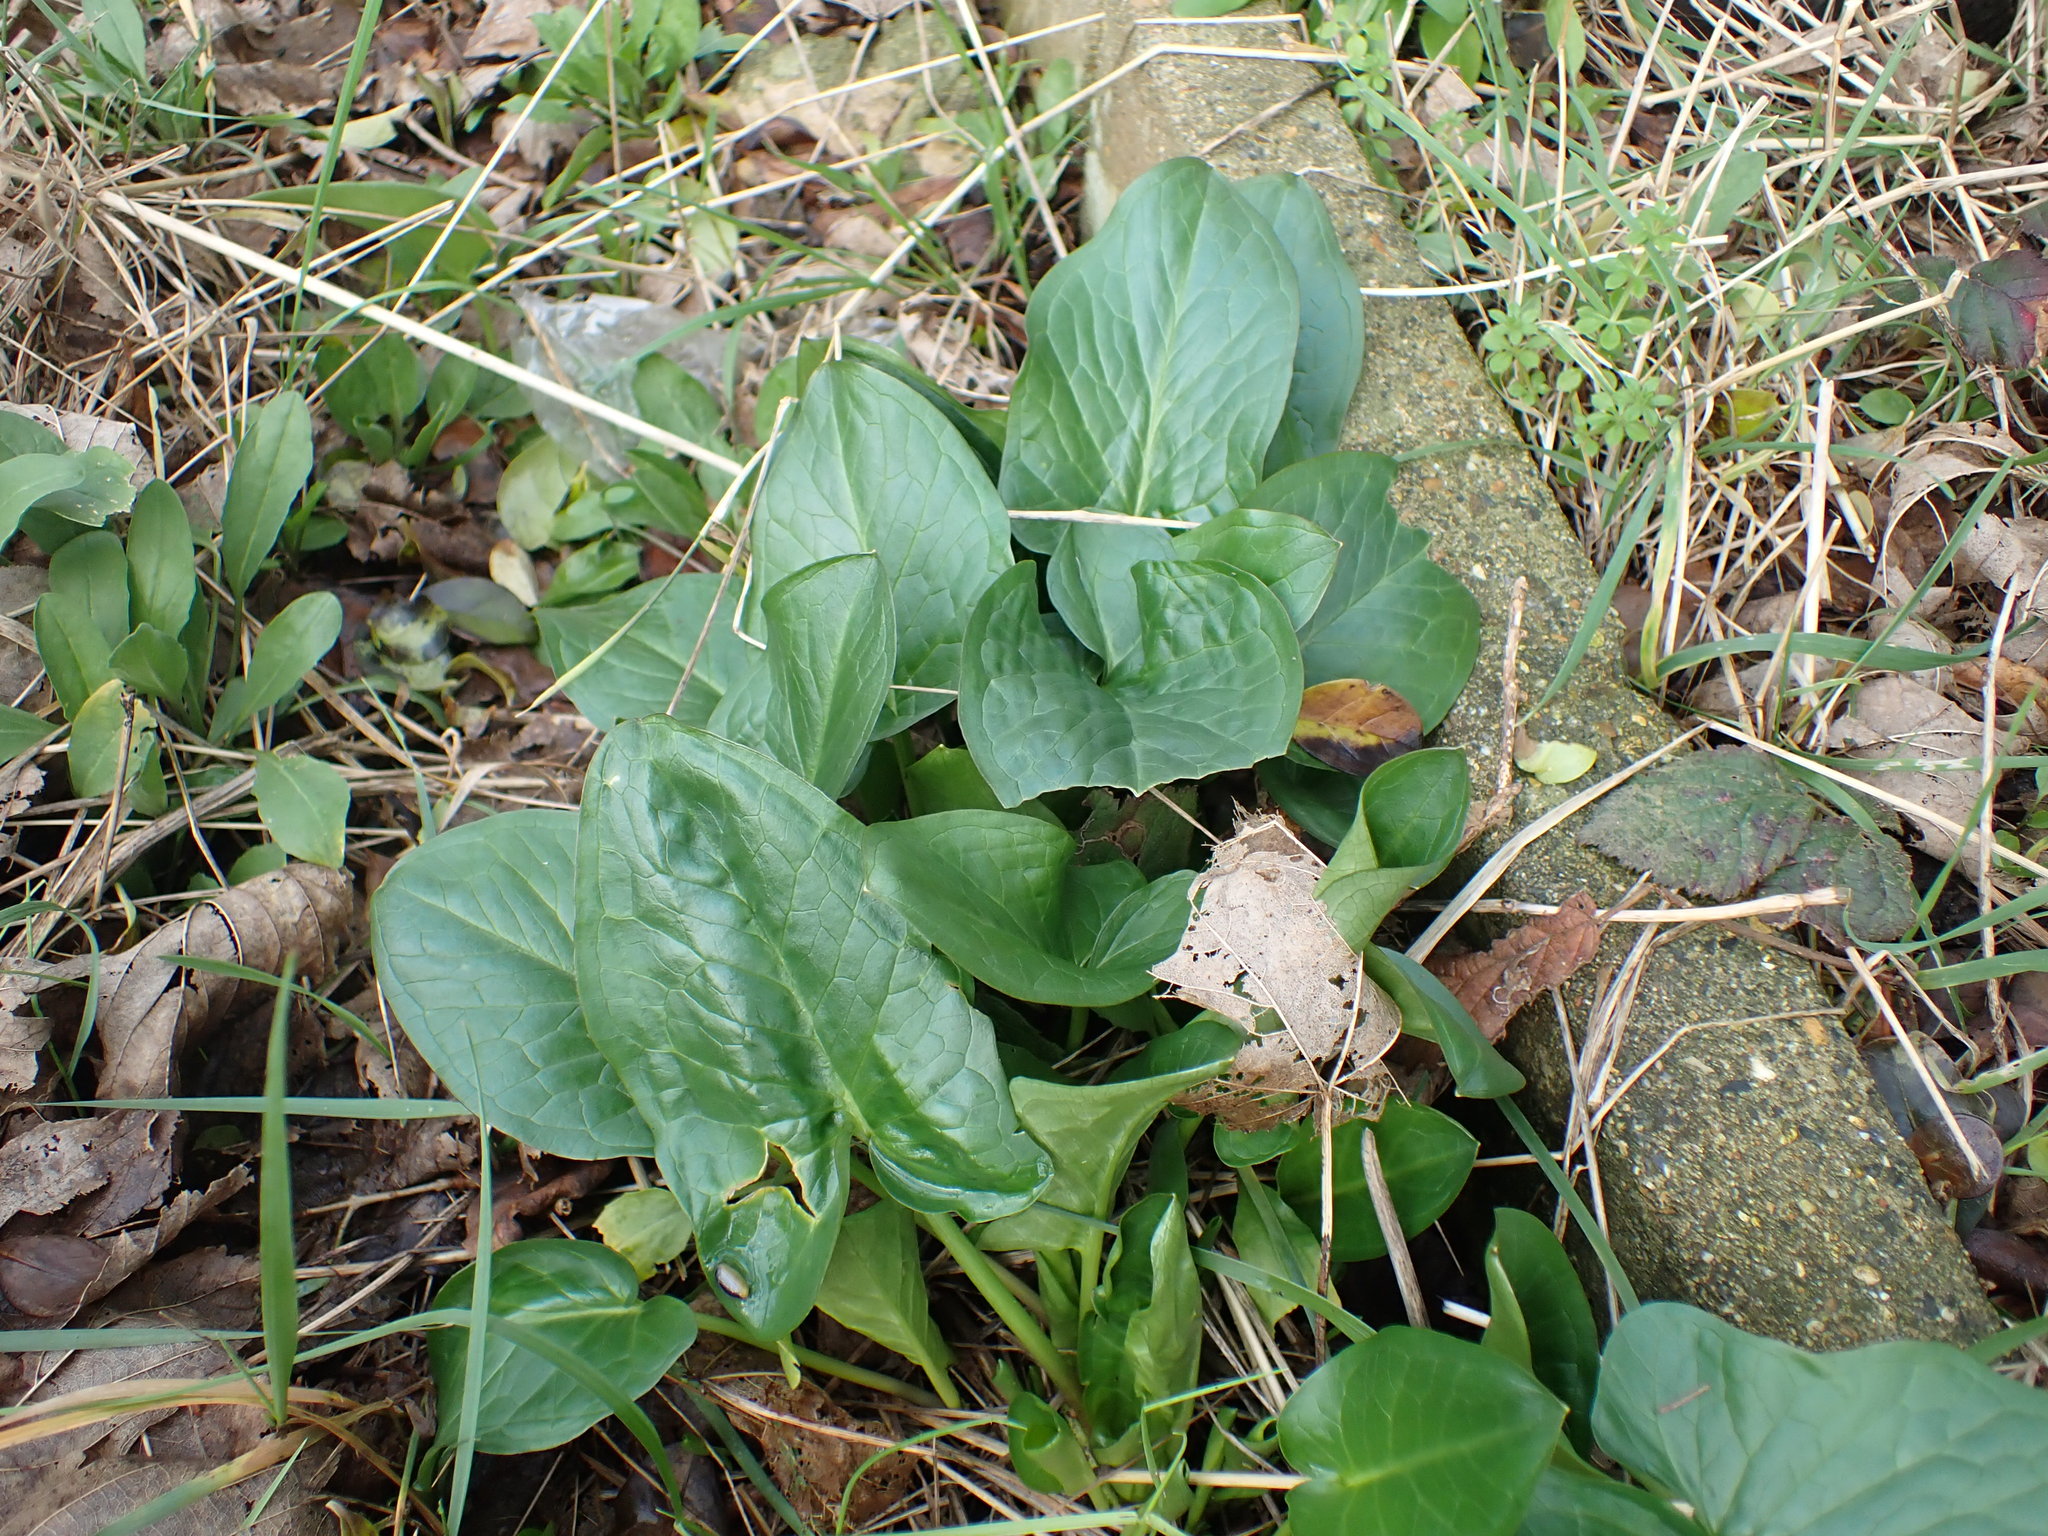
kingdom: Plantae
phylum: Tracheophyta
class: Liliopsida
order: Alismatales
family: Araceae
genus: Arum
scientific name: Arum maculatum
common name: Lords-and-ladies
